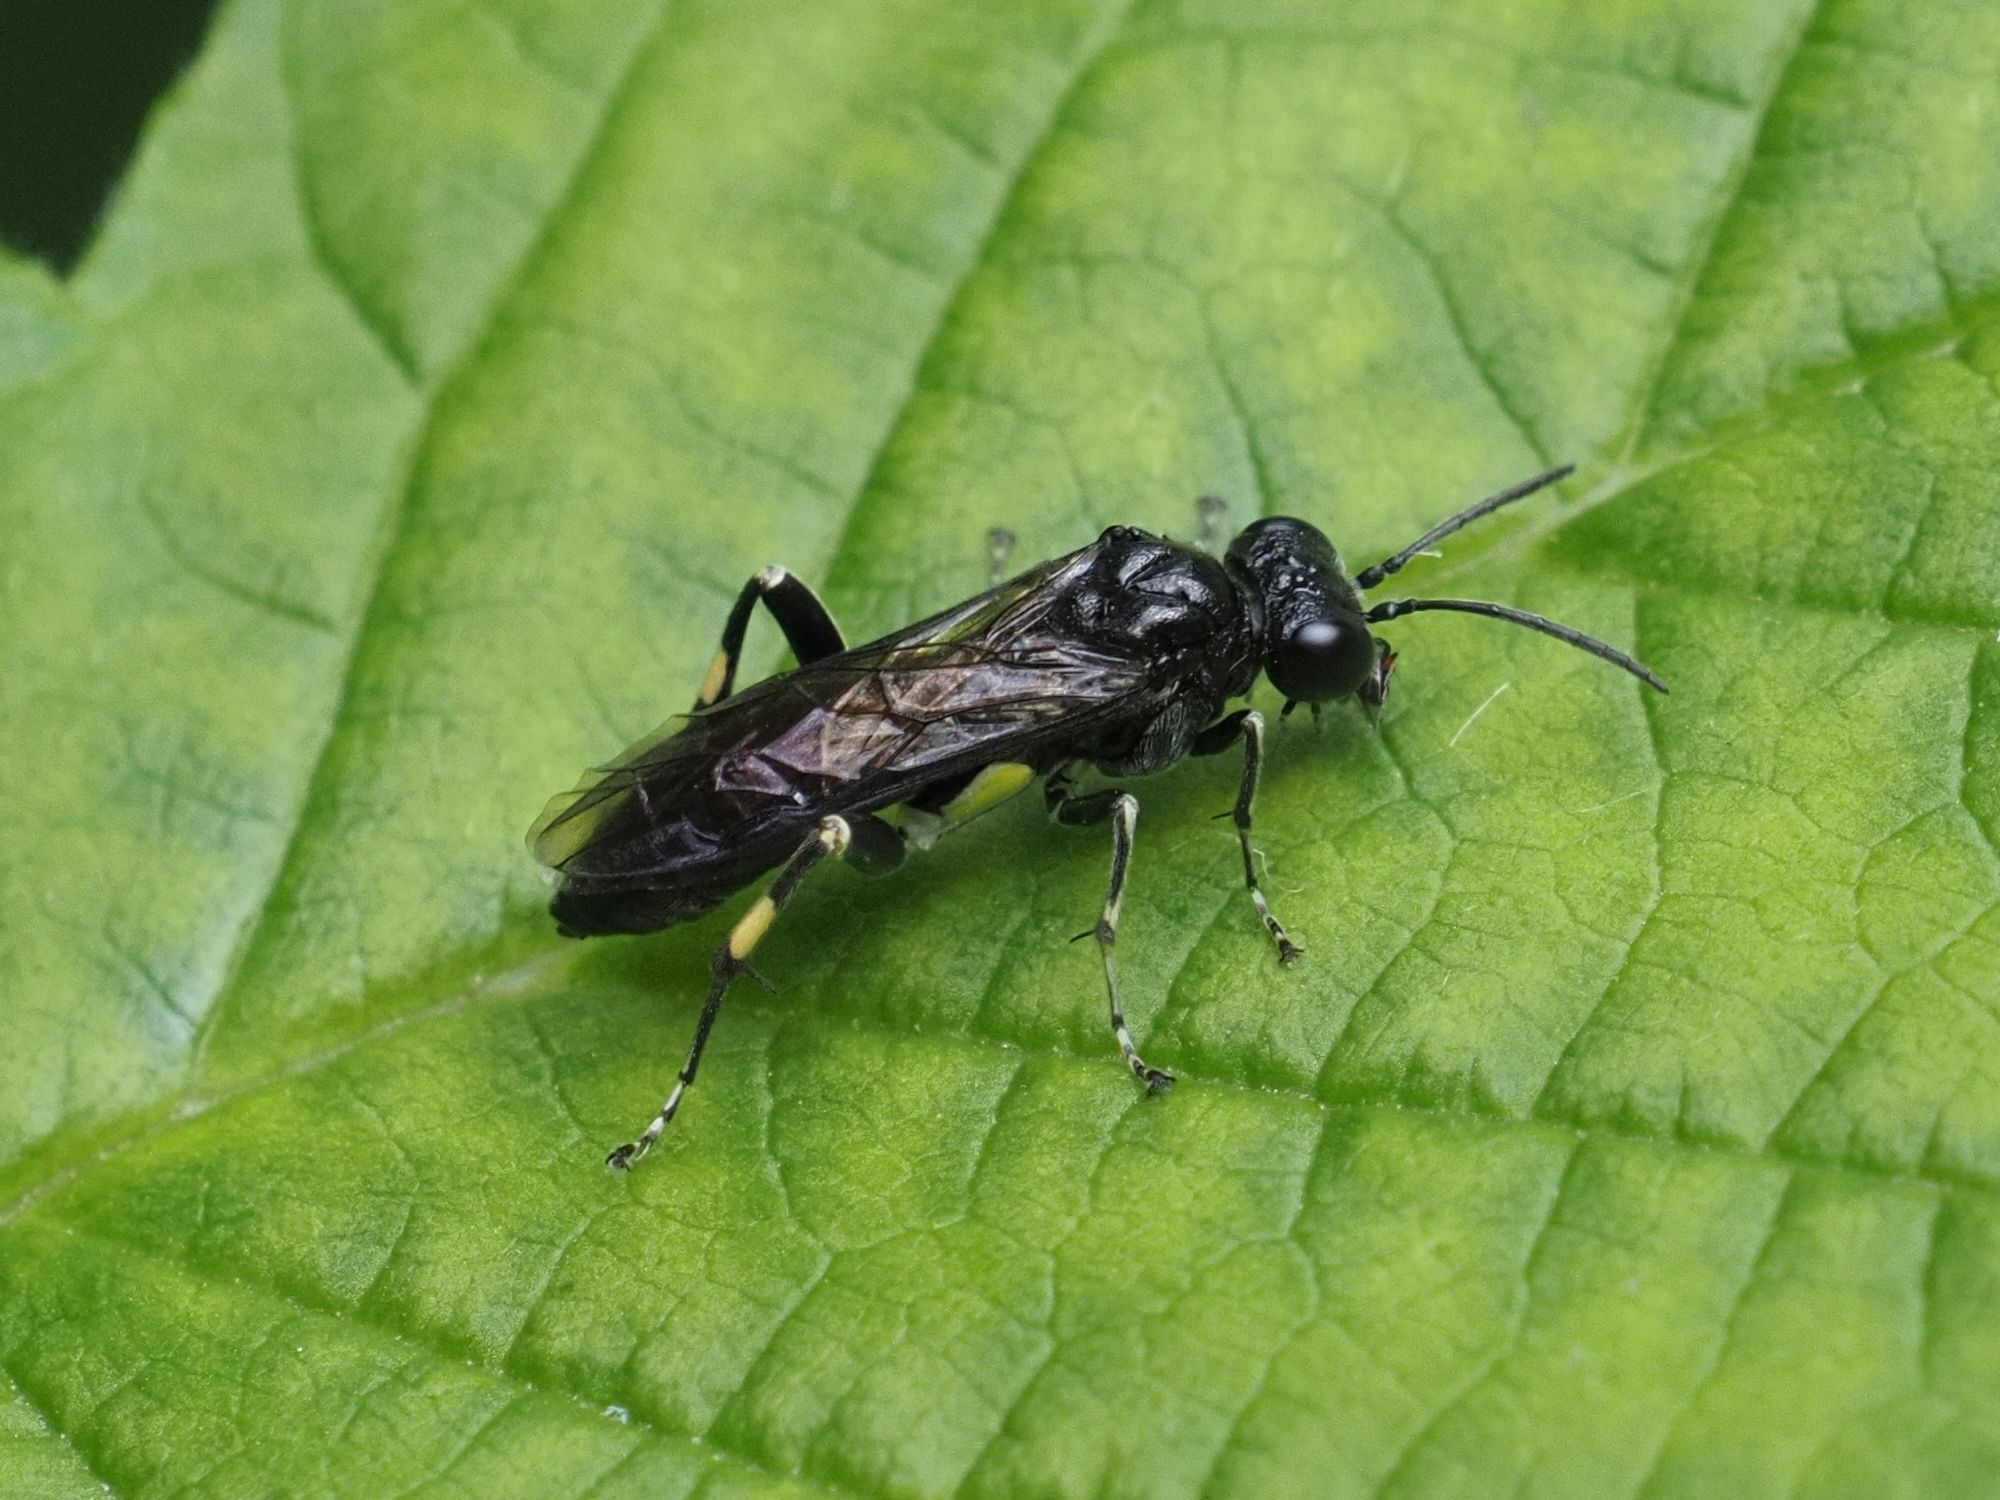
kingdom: Animalia
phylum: Arthropoda
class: Insecta
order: Hymenoptera
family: Tenthredinidae
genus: Macrophya
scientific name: Macrophya ribis
